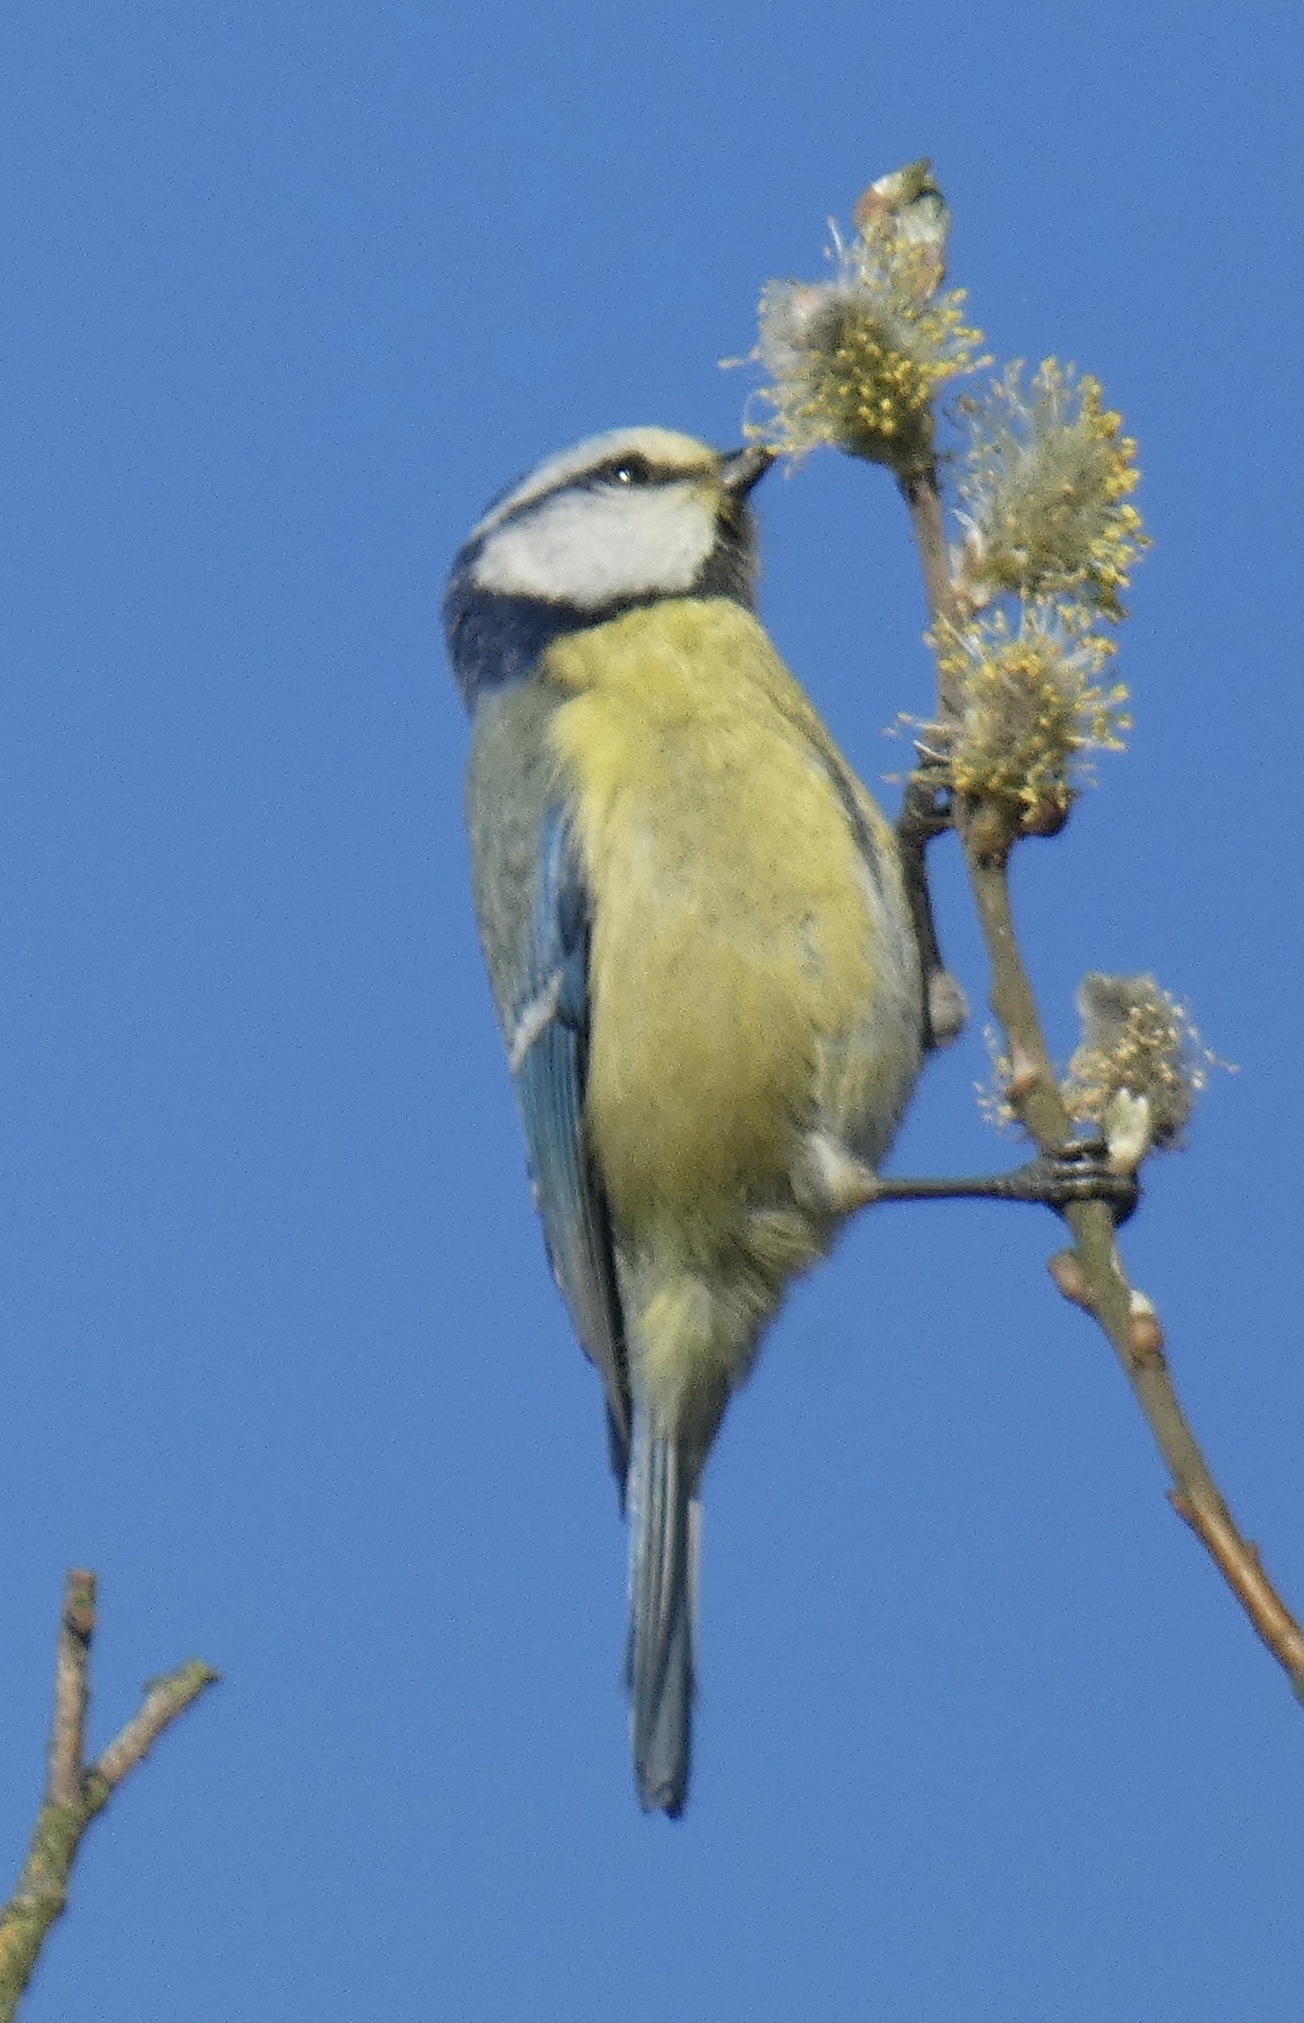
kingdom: Animalia
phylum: Chordata
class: Aves
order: Passeriformes
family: Paridae
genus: Cyanistes
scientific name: Cyanistes caeruleus
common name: Eurasian blue tit
